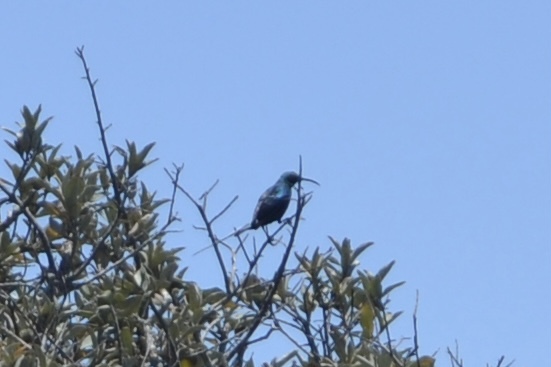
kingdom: Animalia
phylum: Chordata
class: Aves
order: Passeriformes
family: Nectariniidae
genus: Nectarinia
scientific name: Nectarinia famosa
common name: Malachite sunbird
